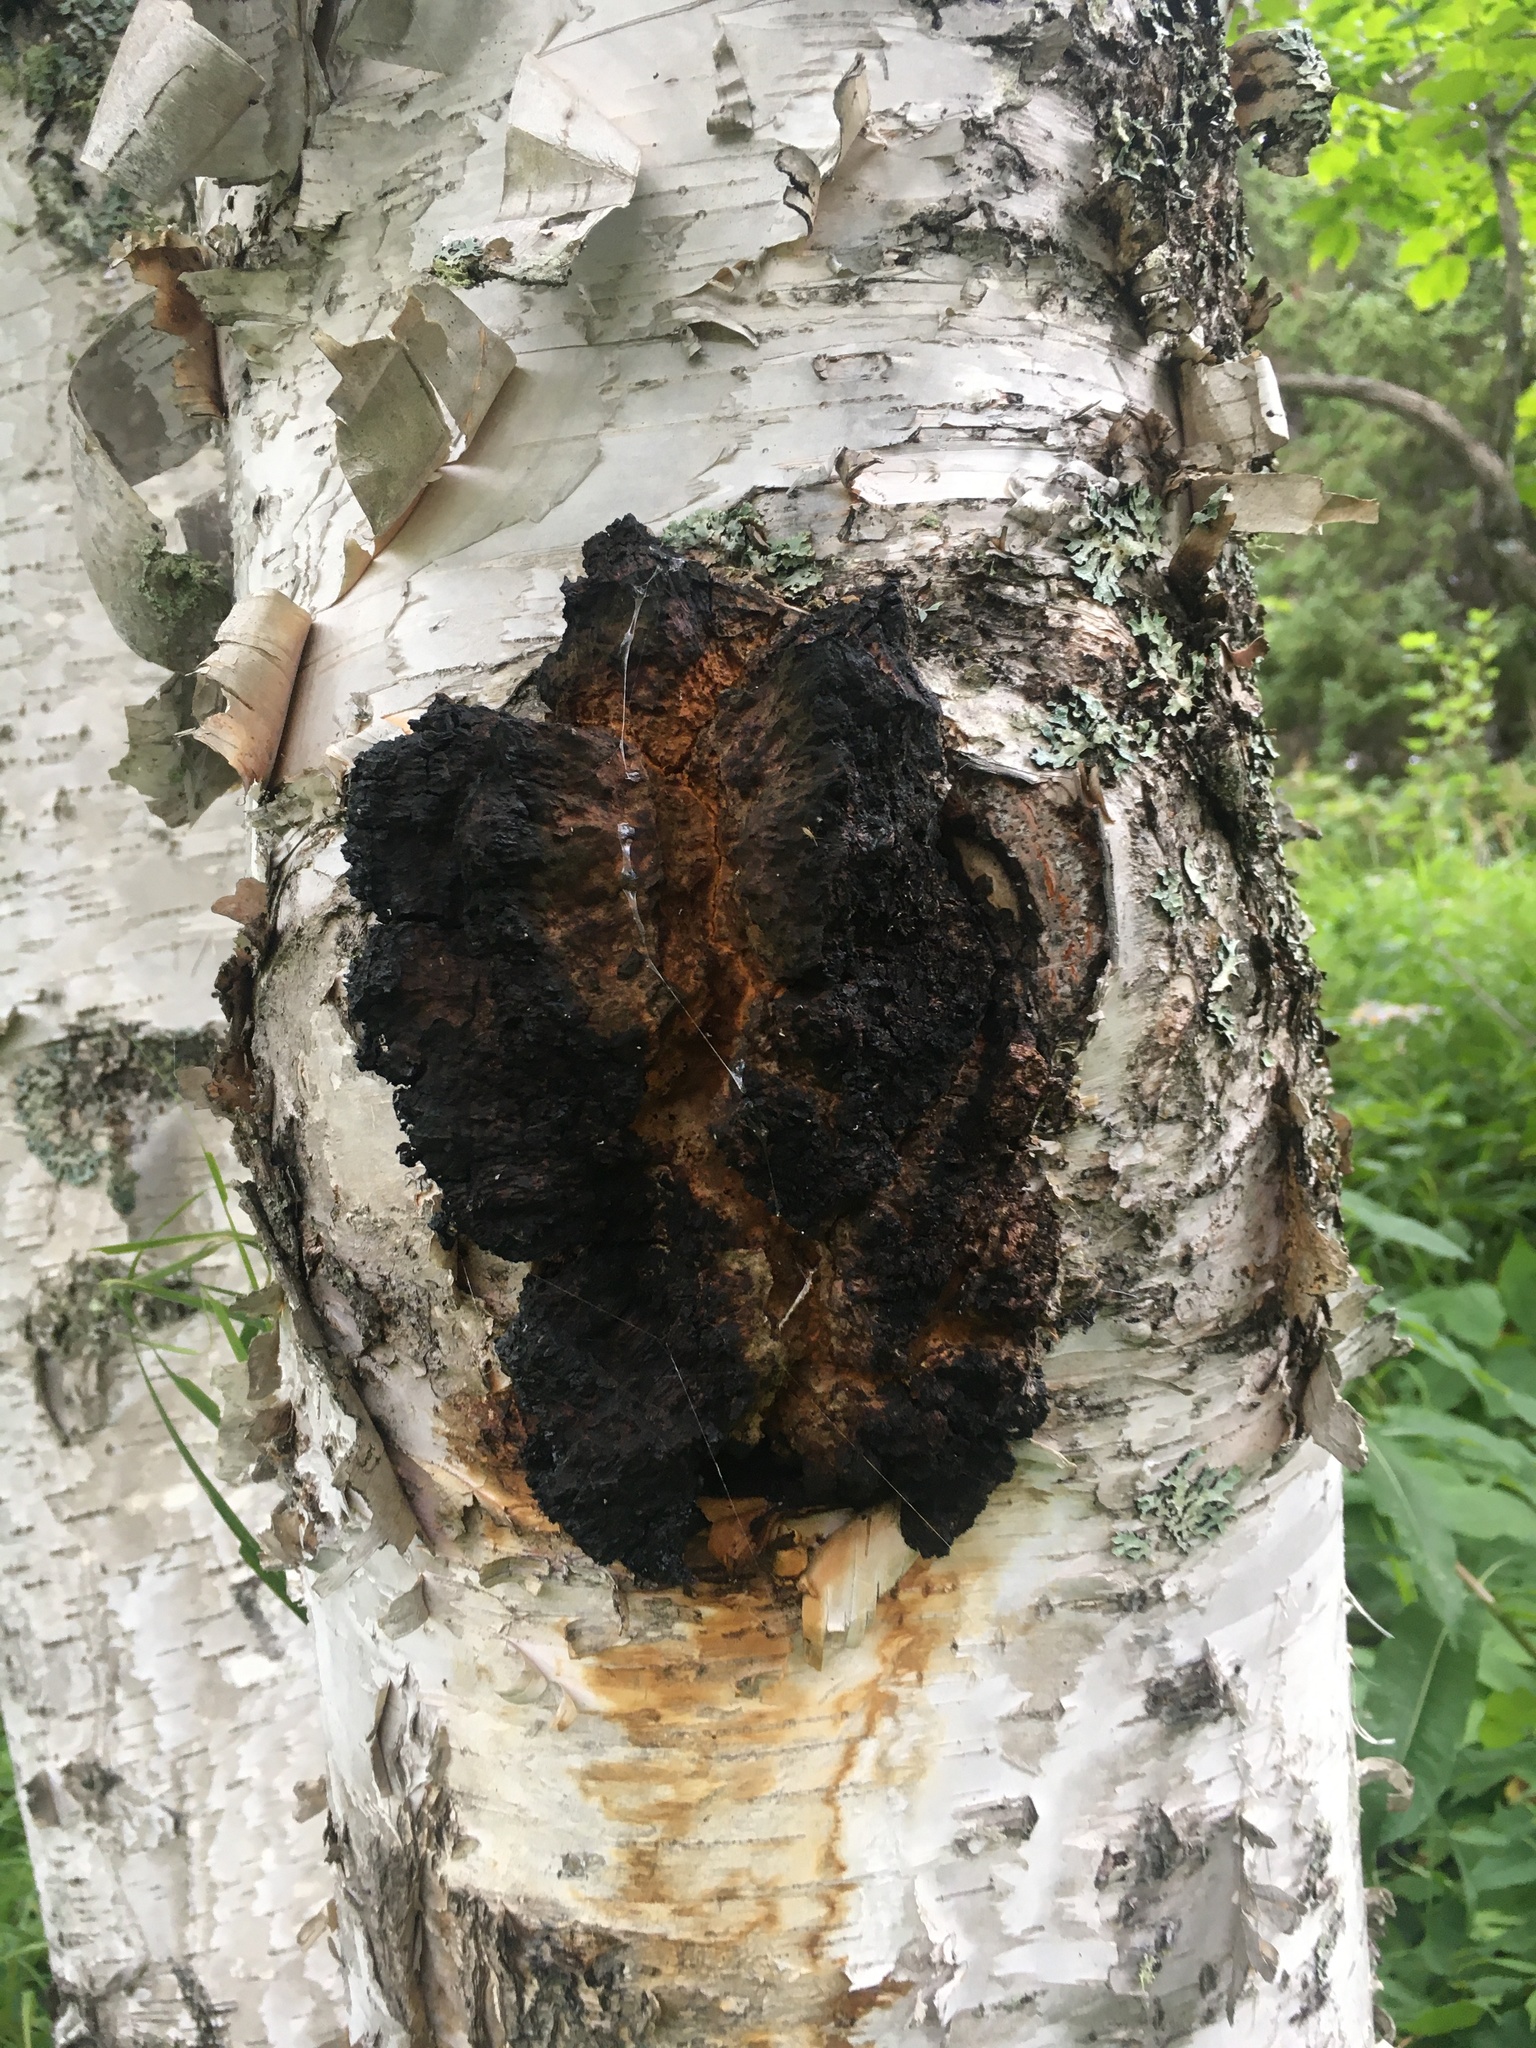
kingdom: Fungi
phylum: Basidiomycota
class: Agaricomycetes
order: Hymenochaetales
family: Hymenochaetaceae
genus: Inonotus
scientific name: Inonotus obliquus
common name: Chaga
